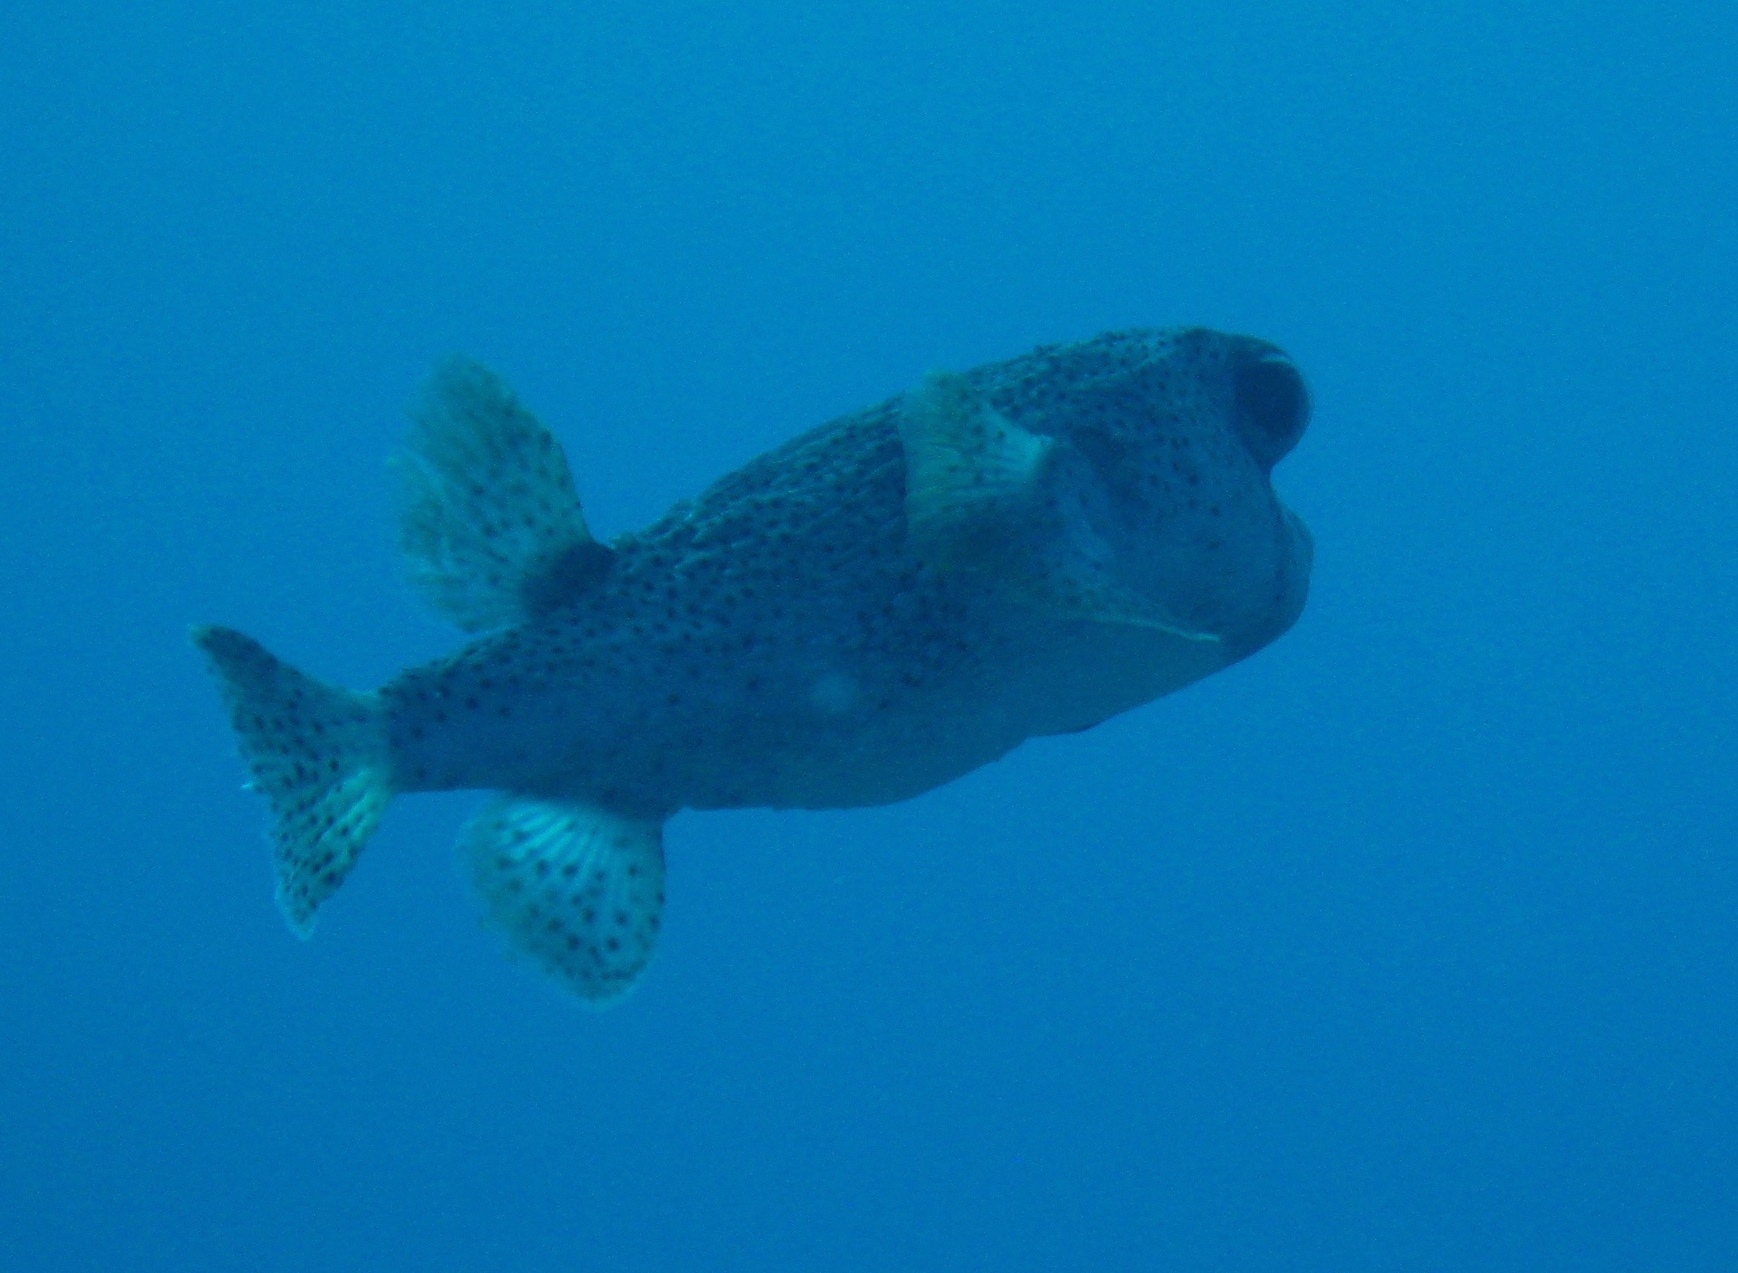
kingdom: Animalia
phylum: Chordata
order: Tetraodontiformes
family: Diodontidae
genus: Diodon
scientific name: Diodon hystrix
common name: Giant porcupinefish
